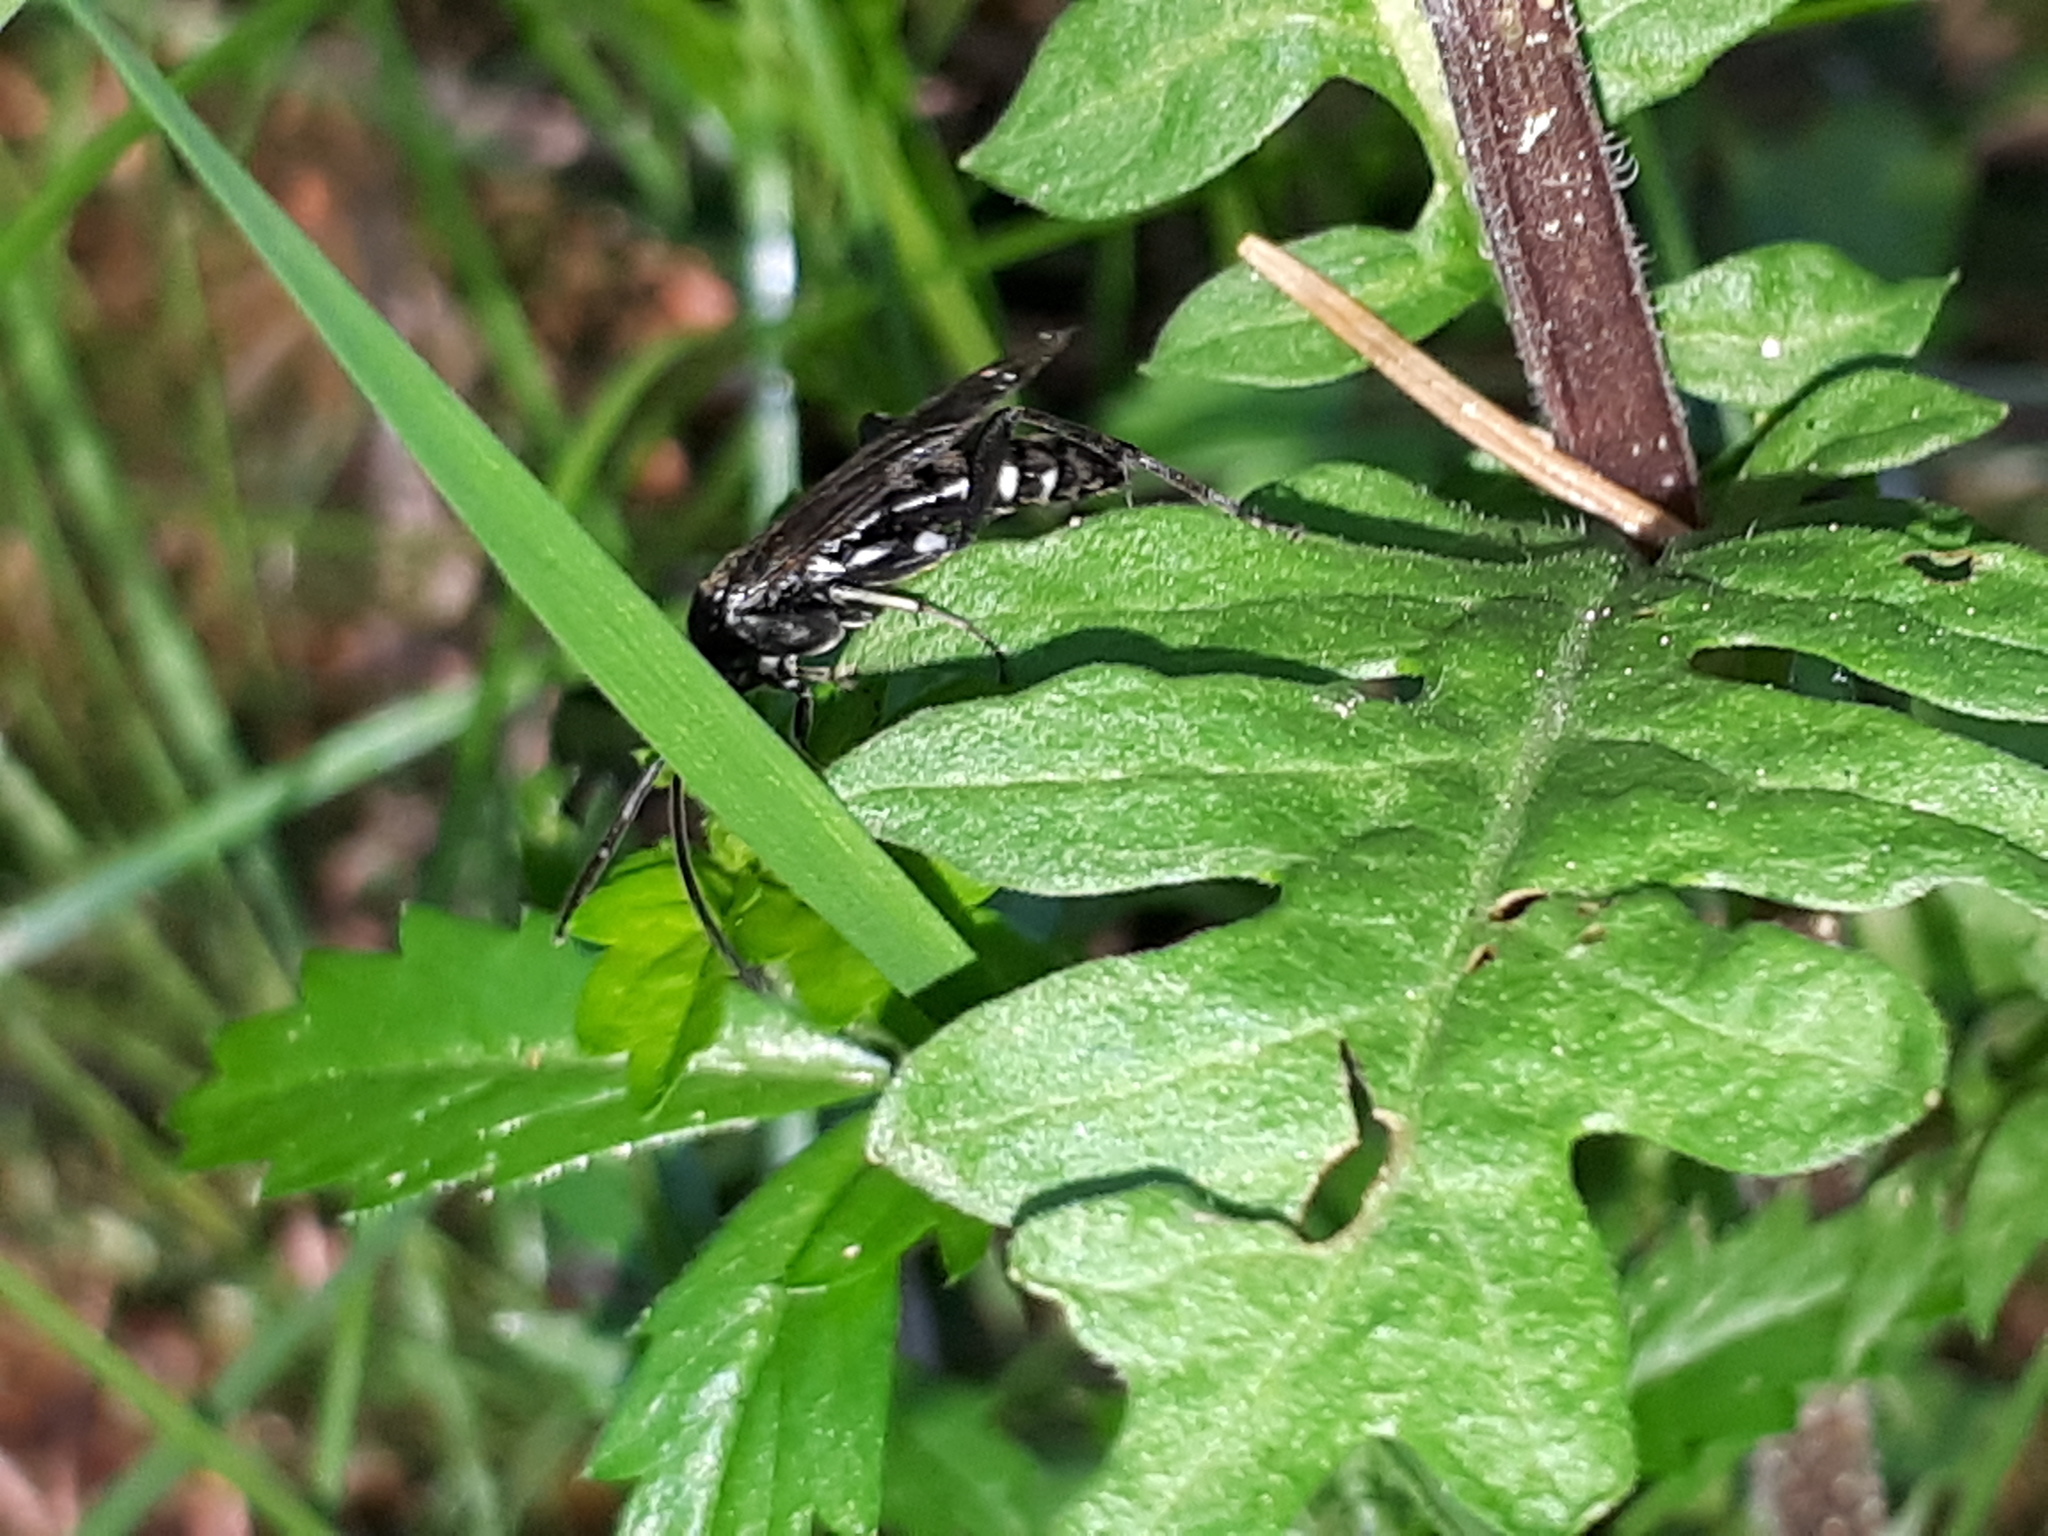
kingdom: Animalia
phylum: Arthropoda
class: Insecta
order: Hymenoptera
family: Tenthredinidae
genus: Macrophya
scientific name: Macrophya duodecimpunctata
